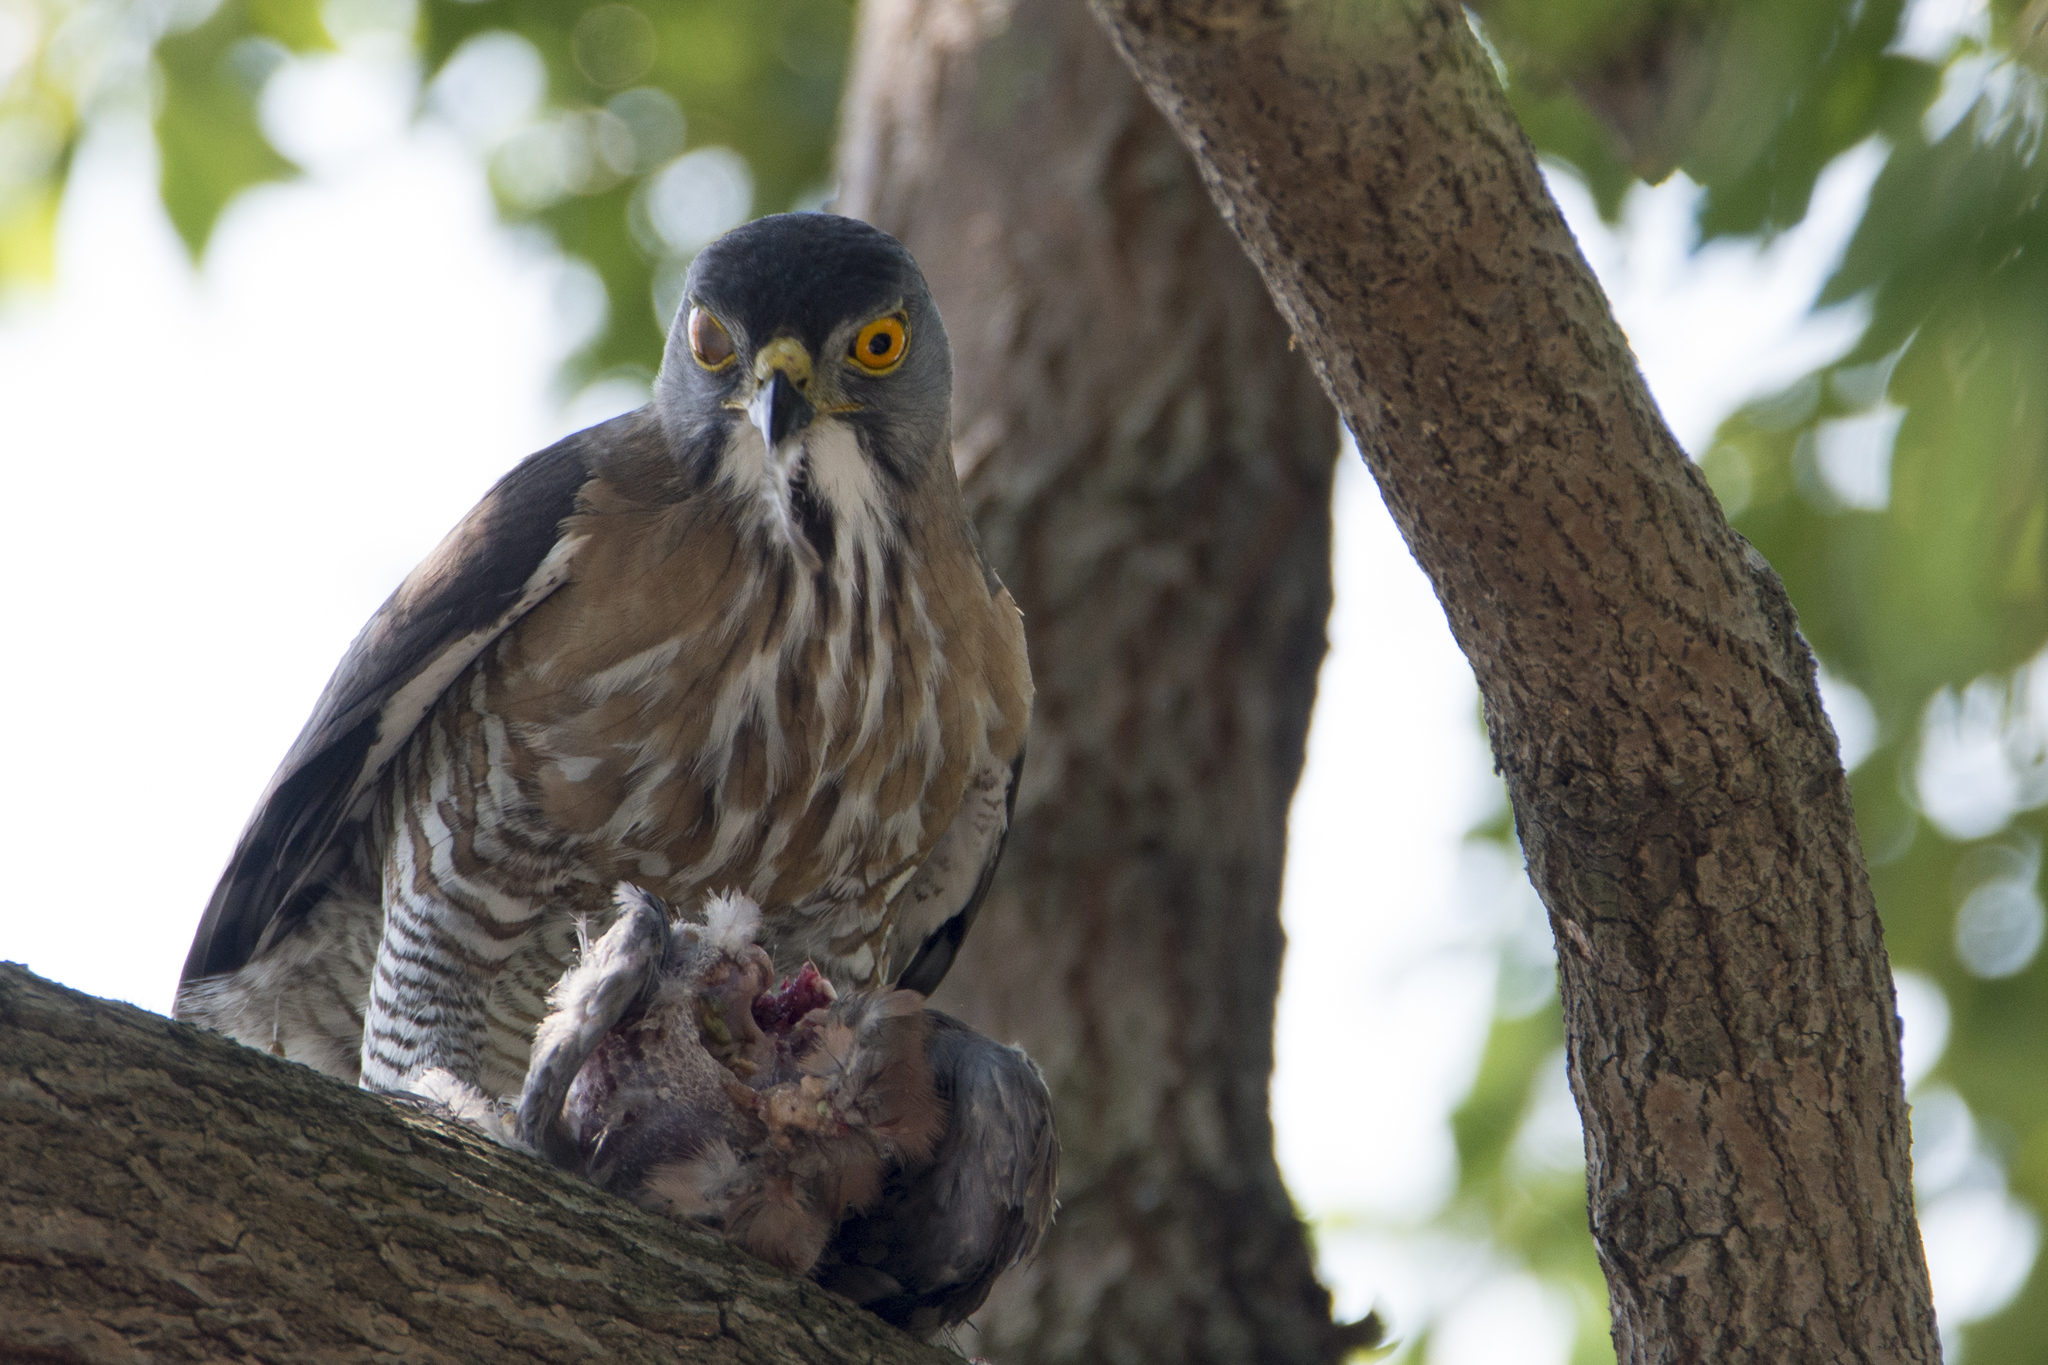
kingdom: Animalia
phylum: Chordata
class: Aves
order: Accipitriformes
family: Accipitridae
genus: Accipiter
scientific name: Accipiter trivirgatus
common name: Crested goshawk
